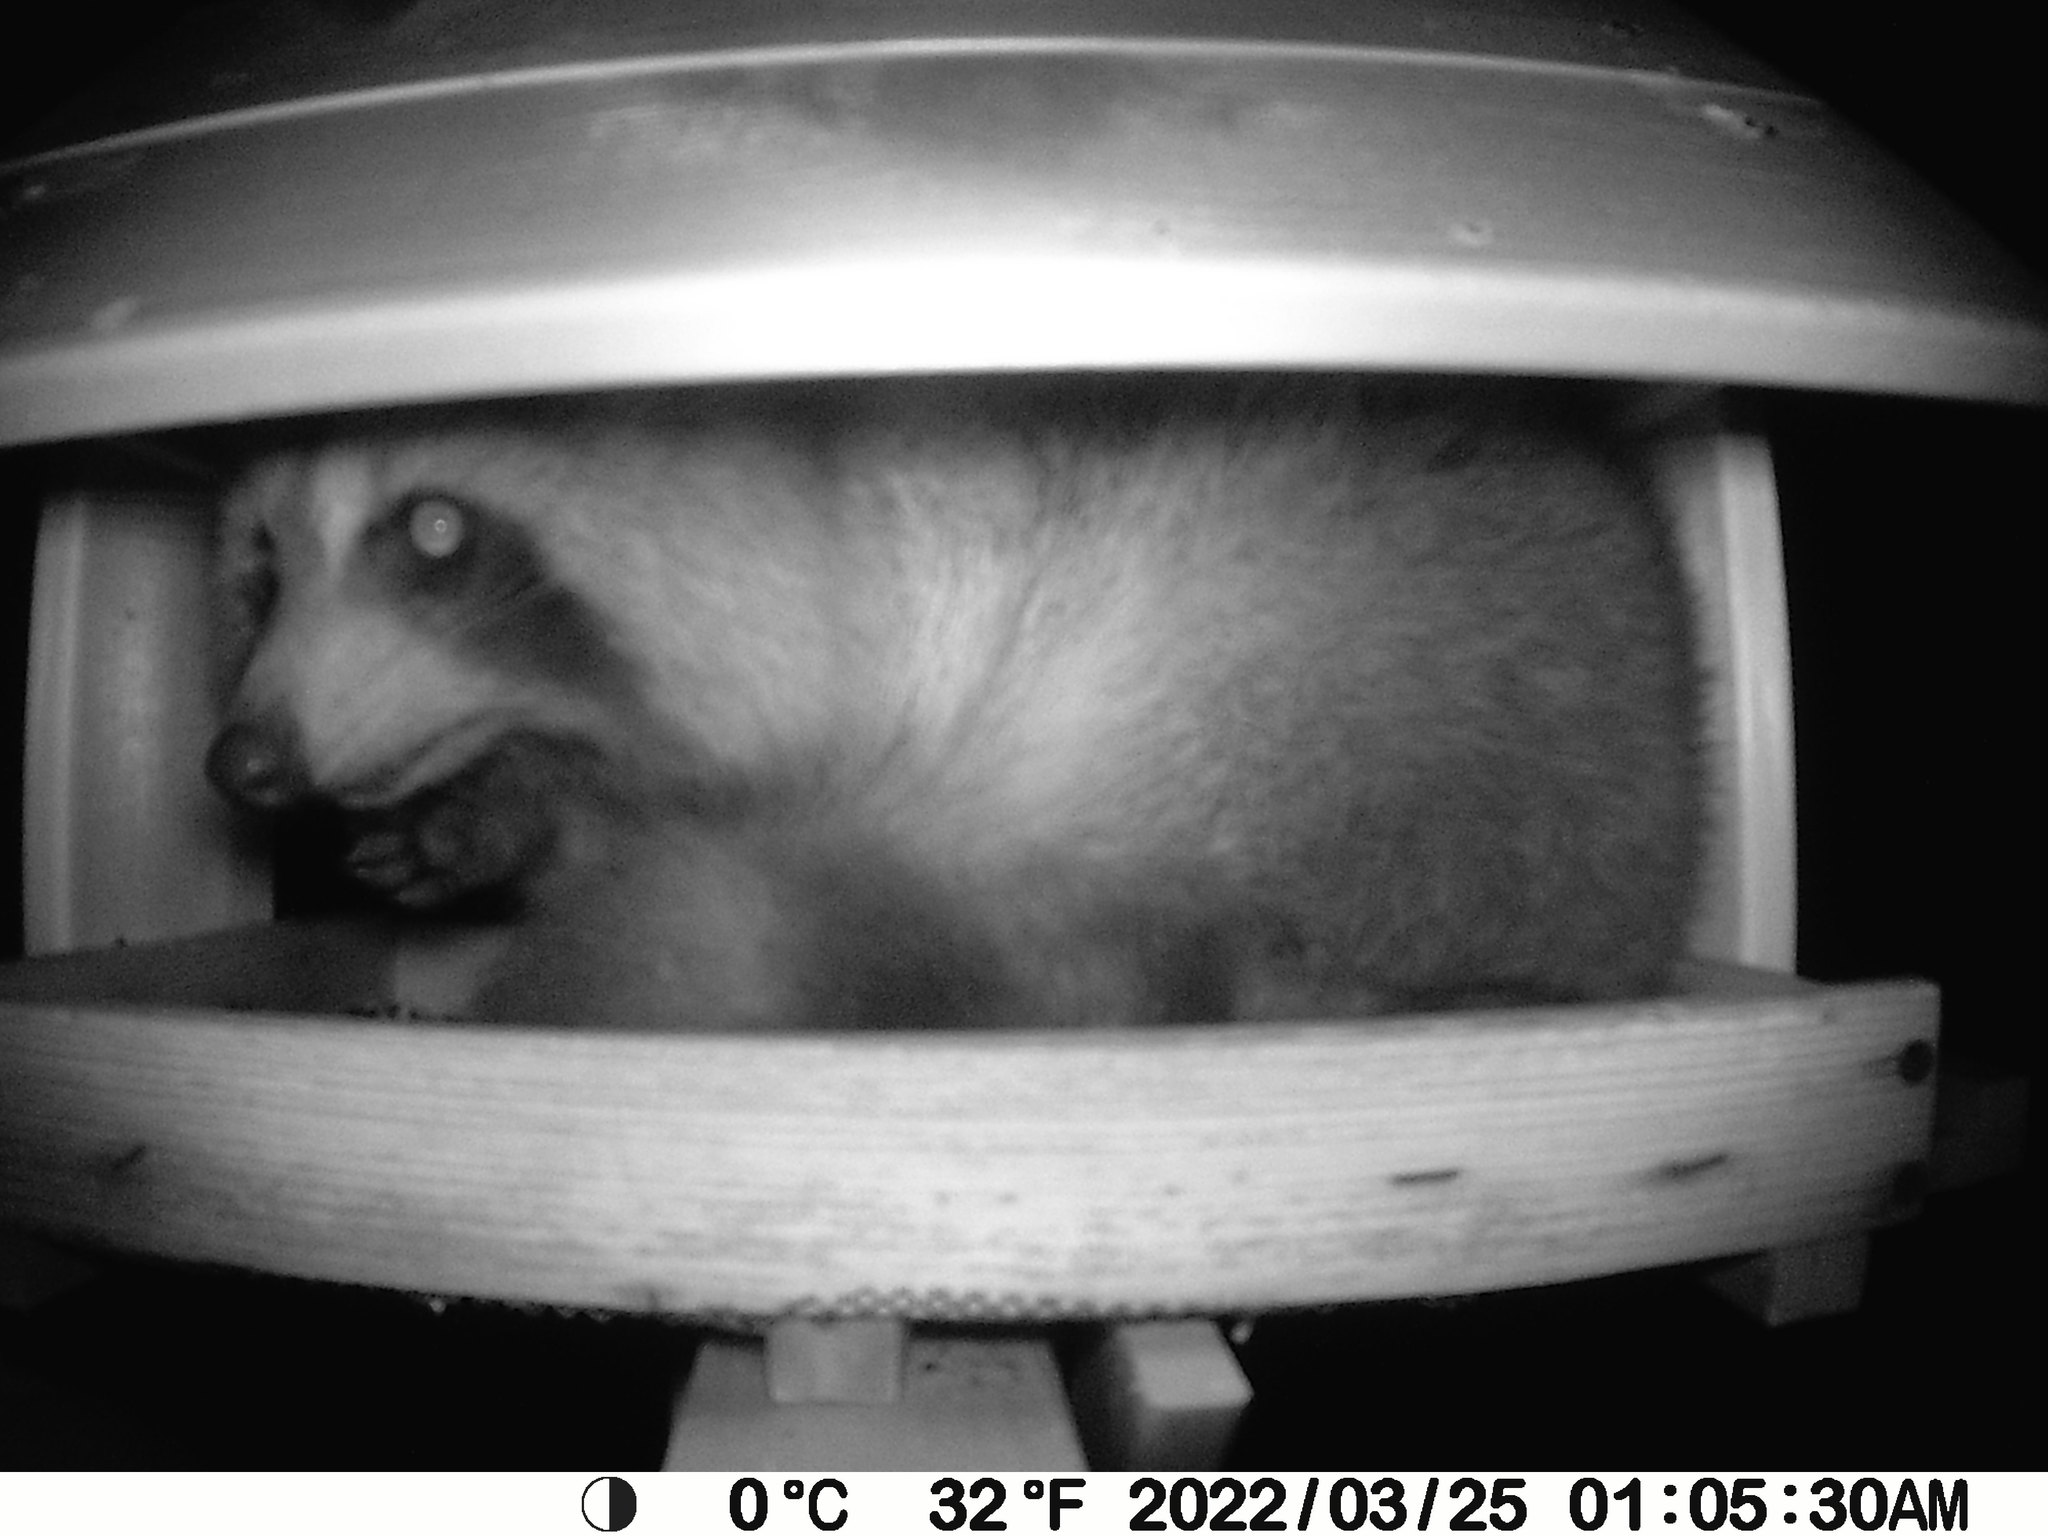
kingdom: Animalia
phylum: Chordata
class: Mammalia
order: Carnivora
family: Procyonidae
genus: Procyon
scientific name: Procyon lotor
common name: Raccoon
